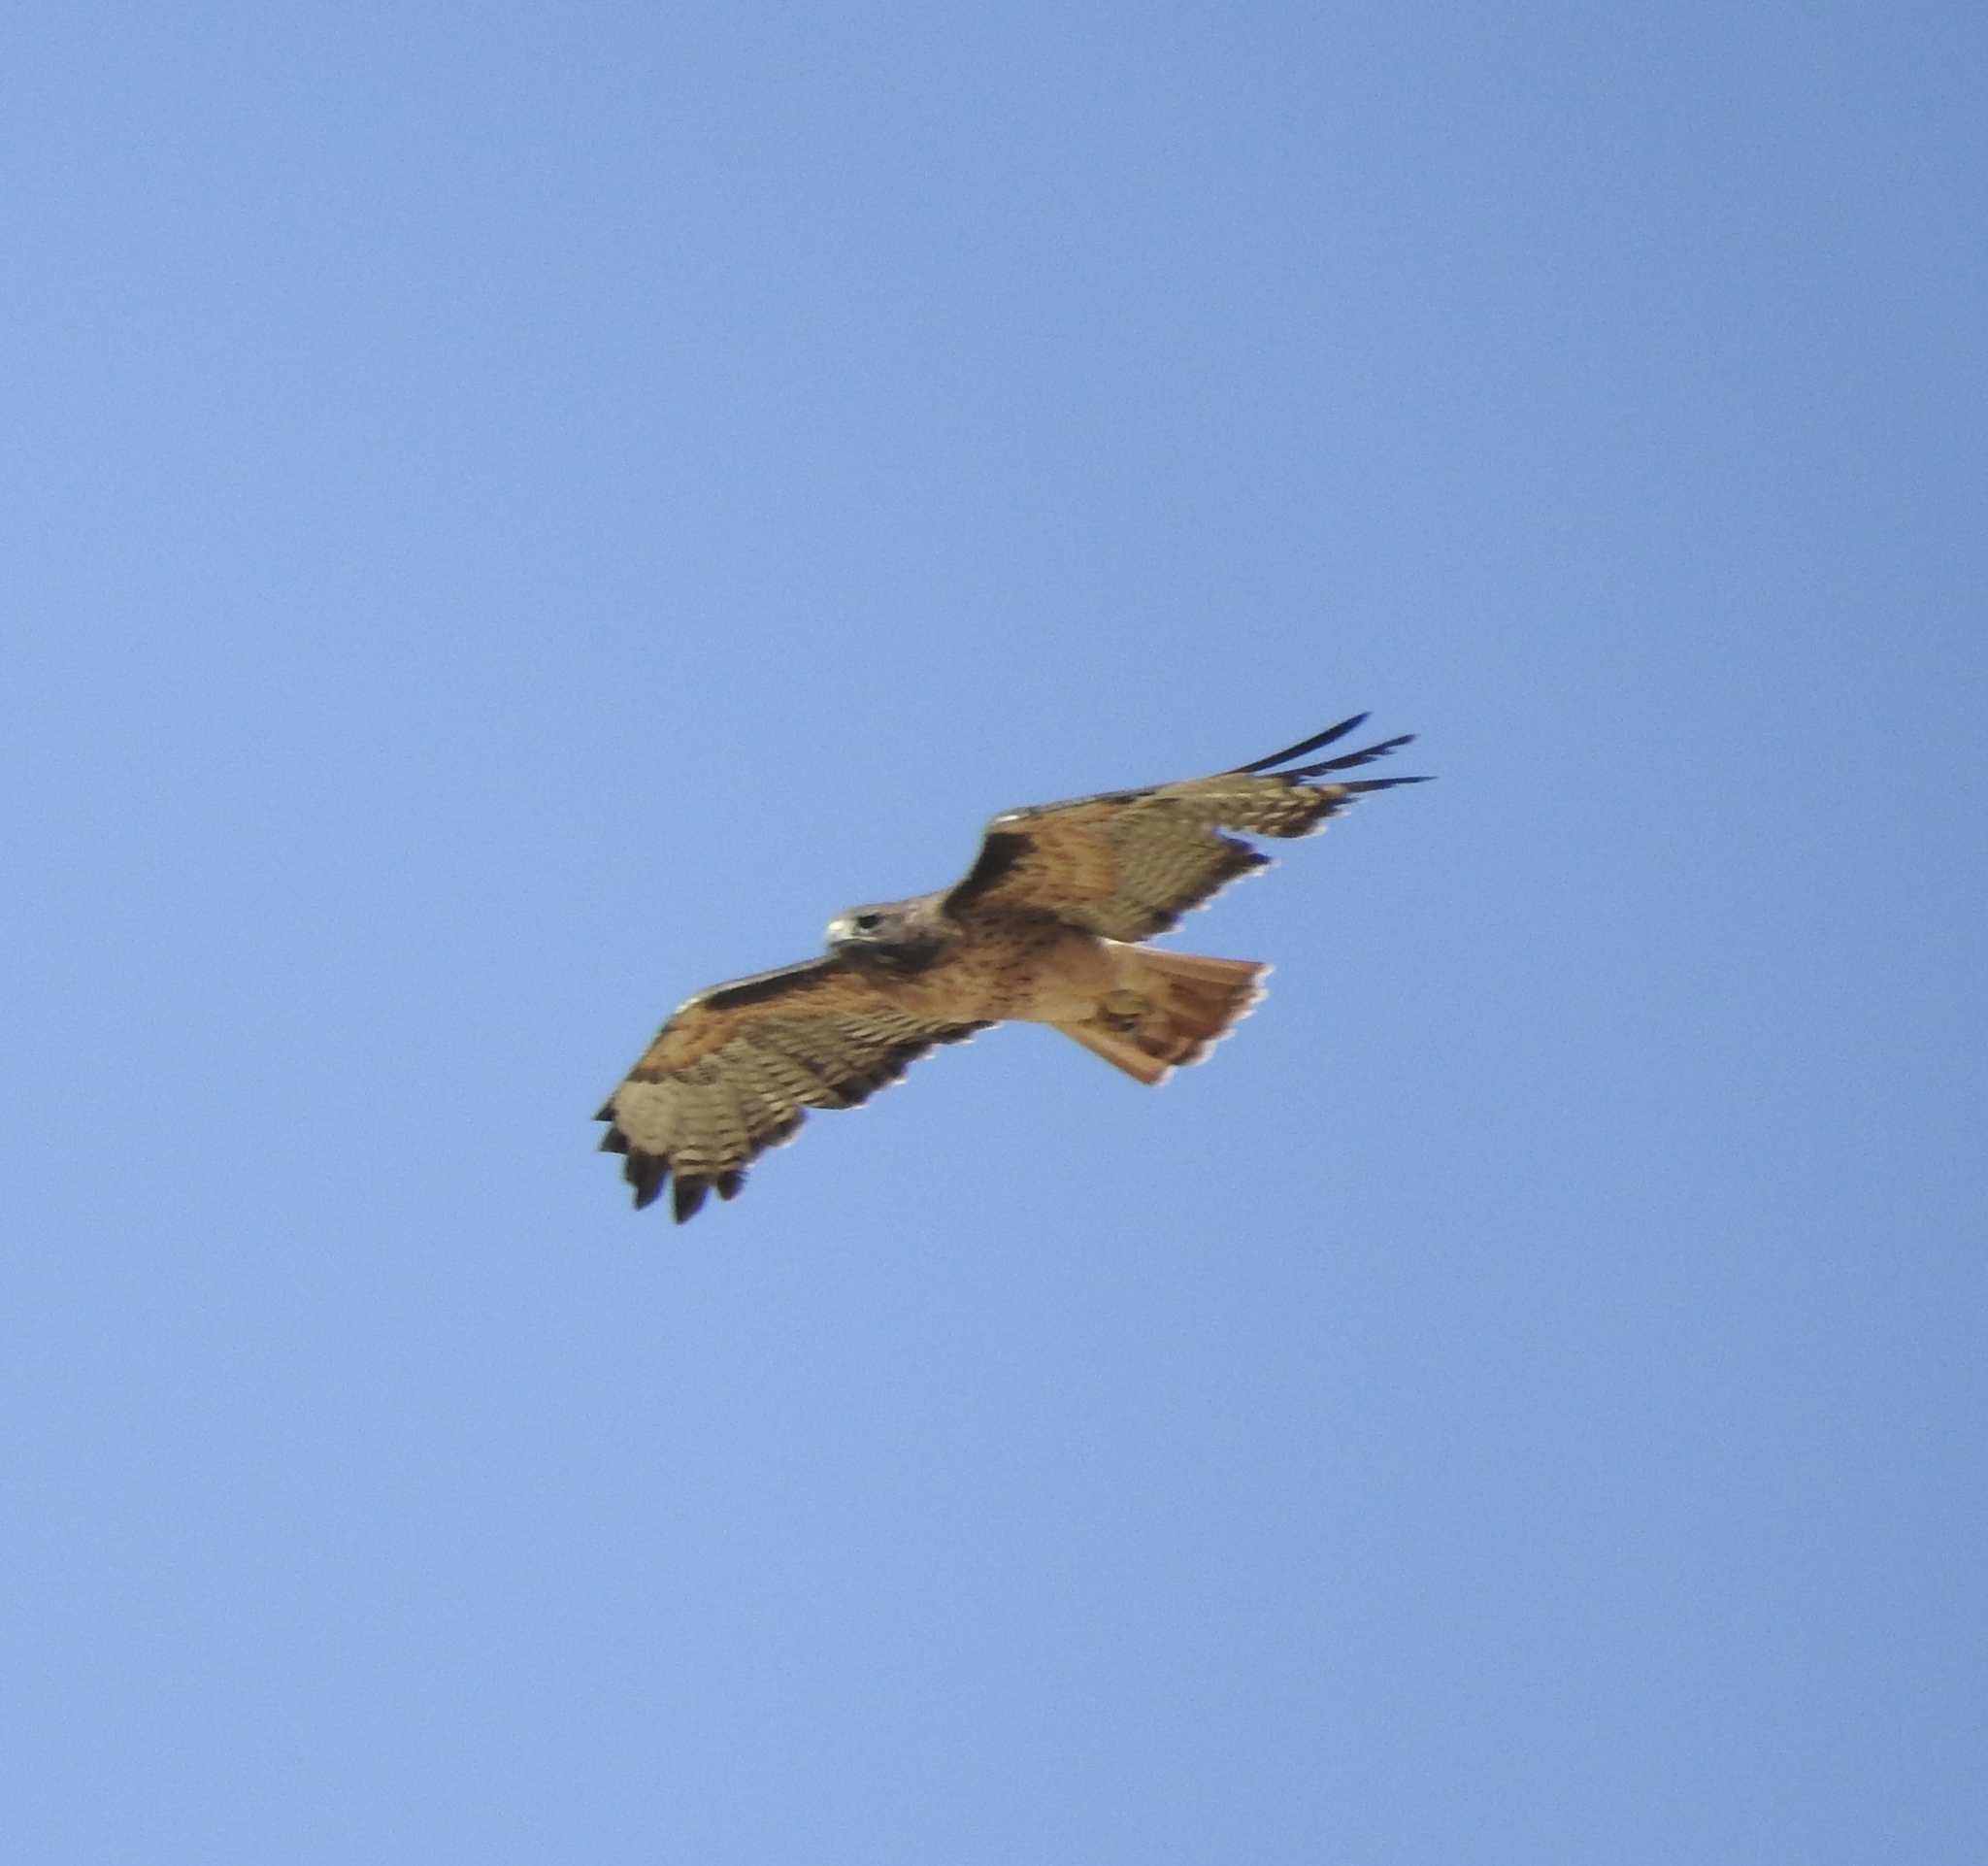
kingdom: Animalia
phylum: Chordata
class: Aves
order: Accipitriformes
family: Accipitridae
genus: Buteo
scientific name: Buteo jamaicensis
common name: Red-tailed hawk
